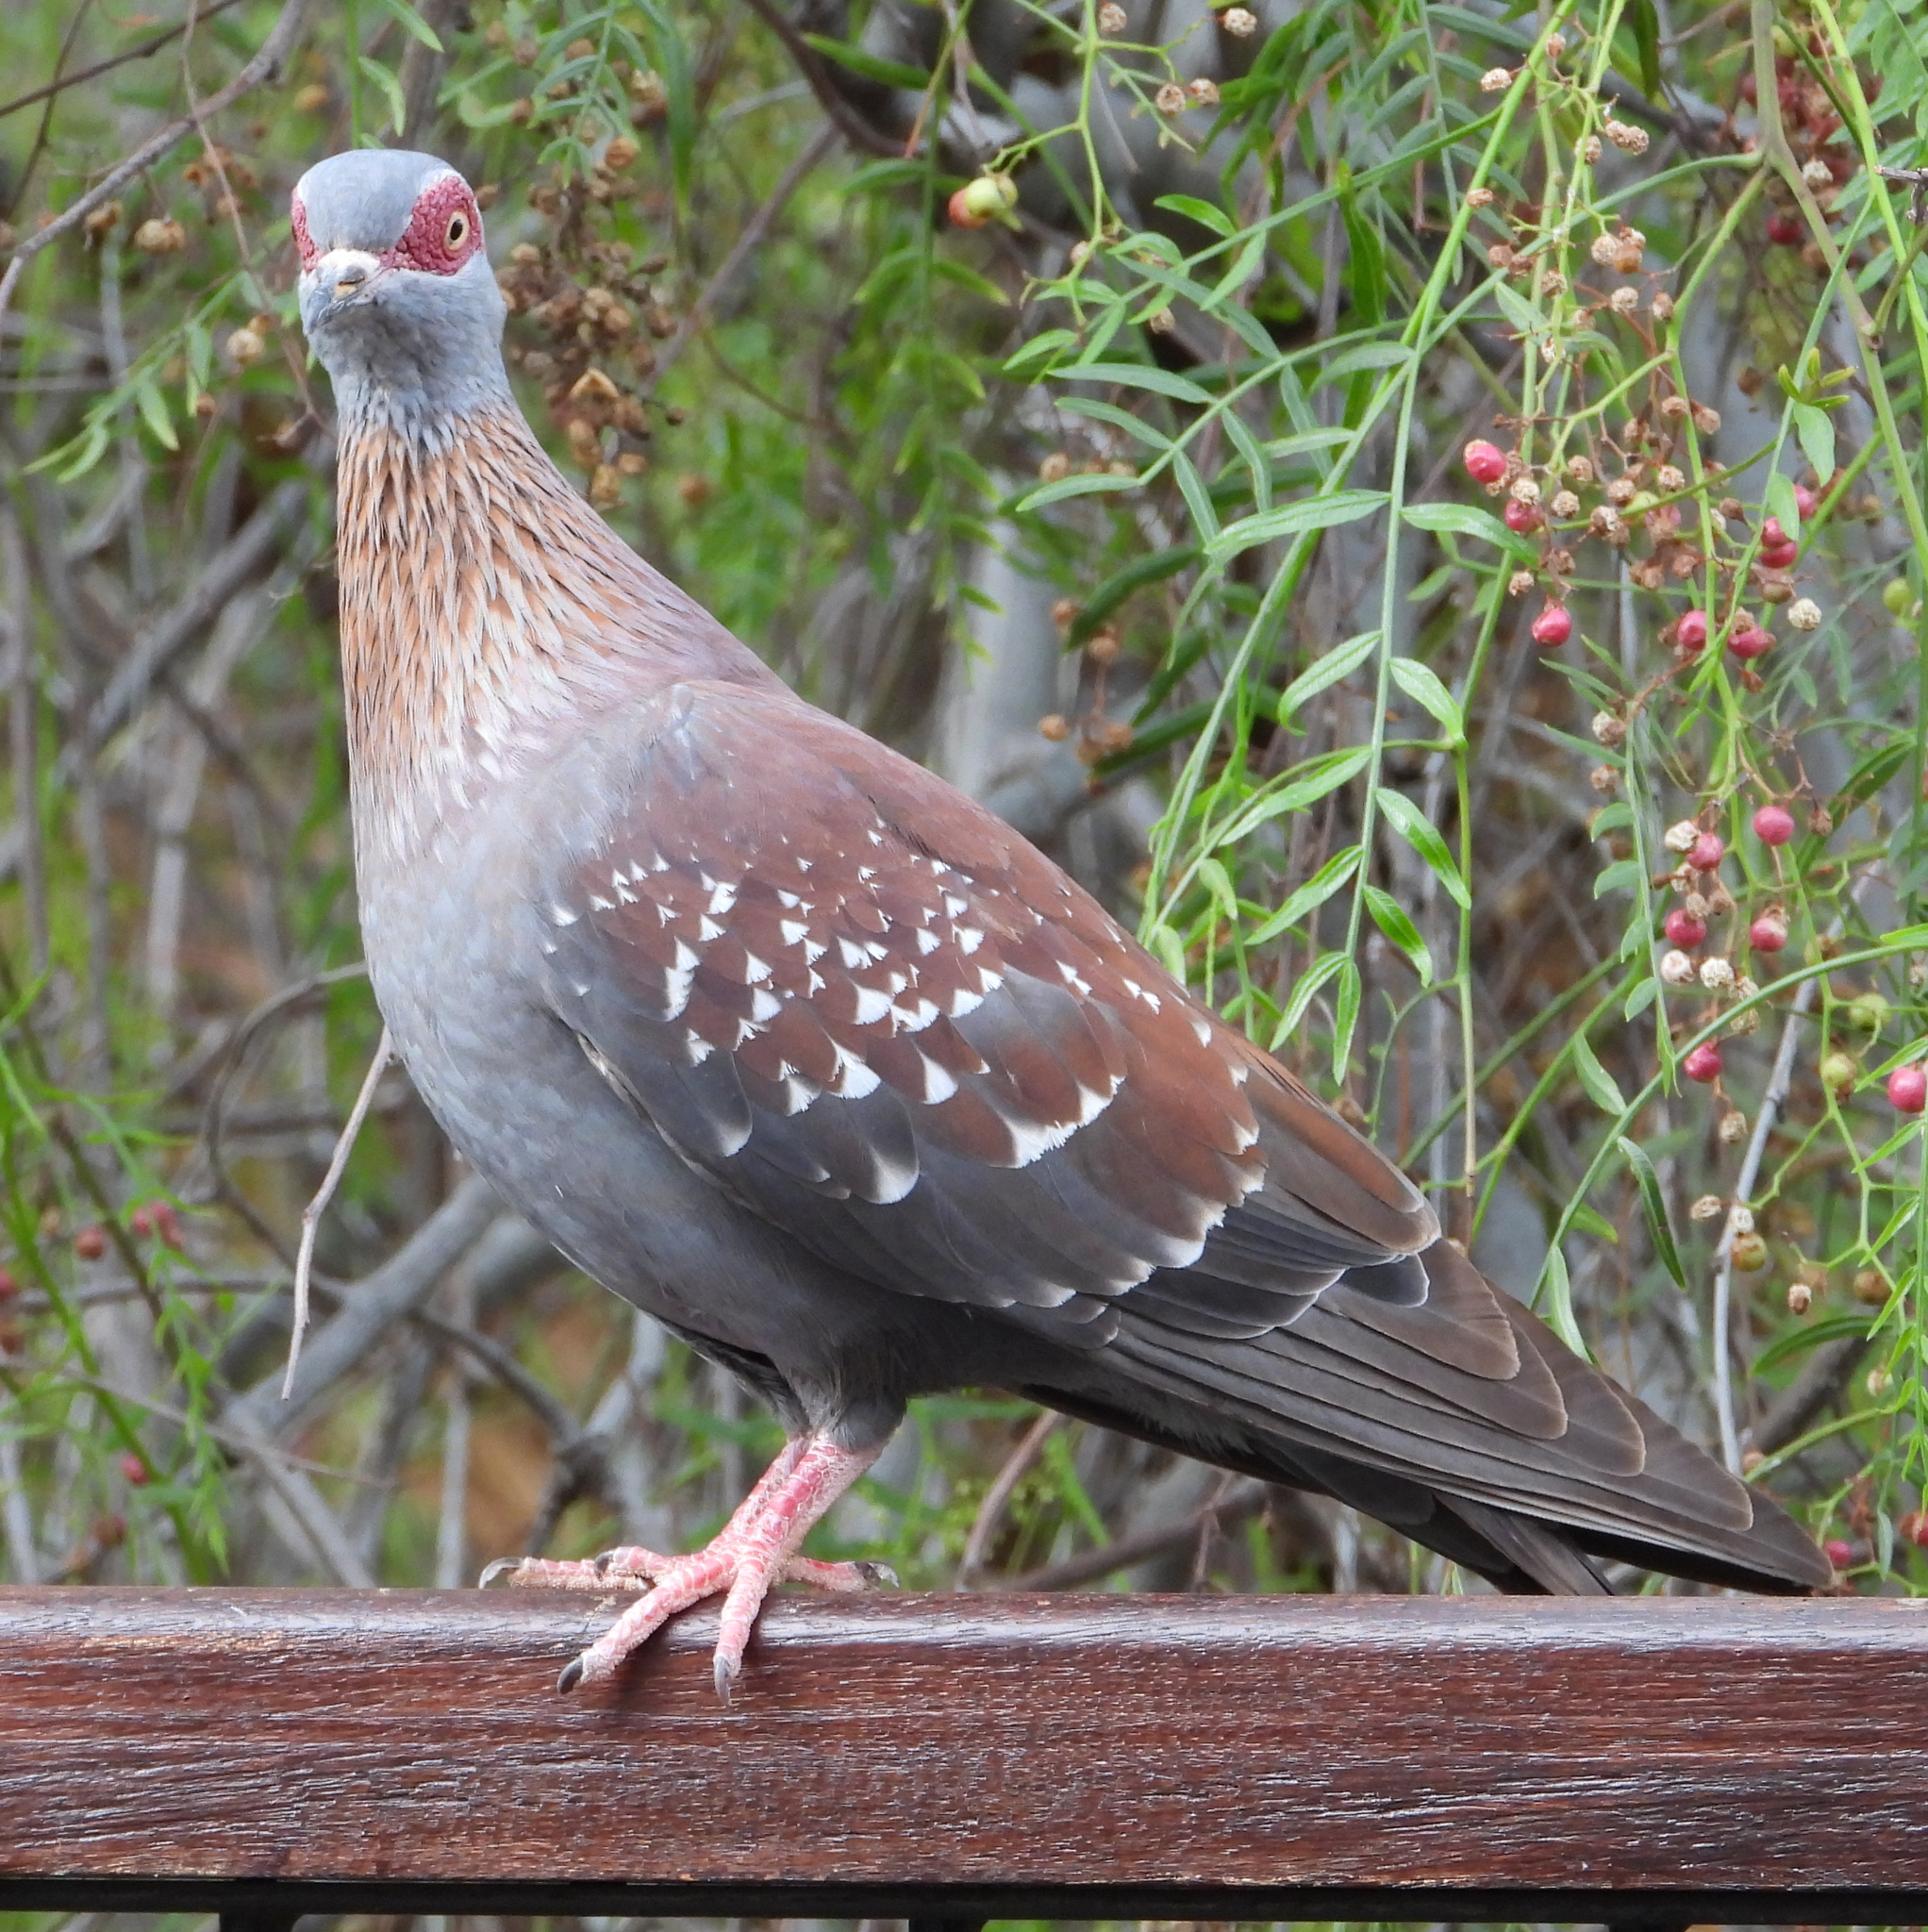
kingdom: Animalia
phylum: Chordata
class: Aves
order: Columbiformes
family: Columbidae
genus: Columba
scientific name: Columba guinea
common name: Speckled pigeon
